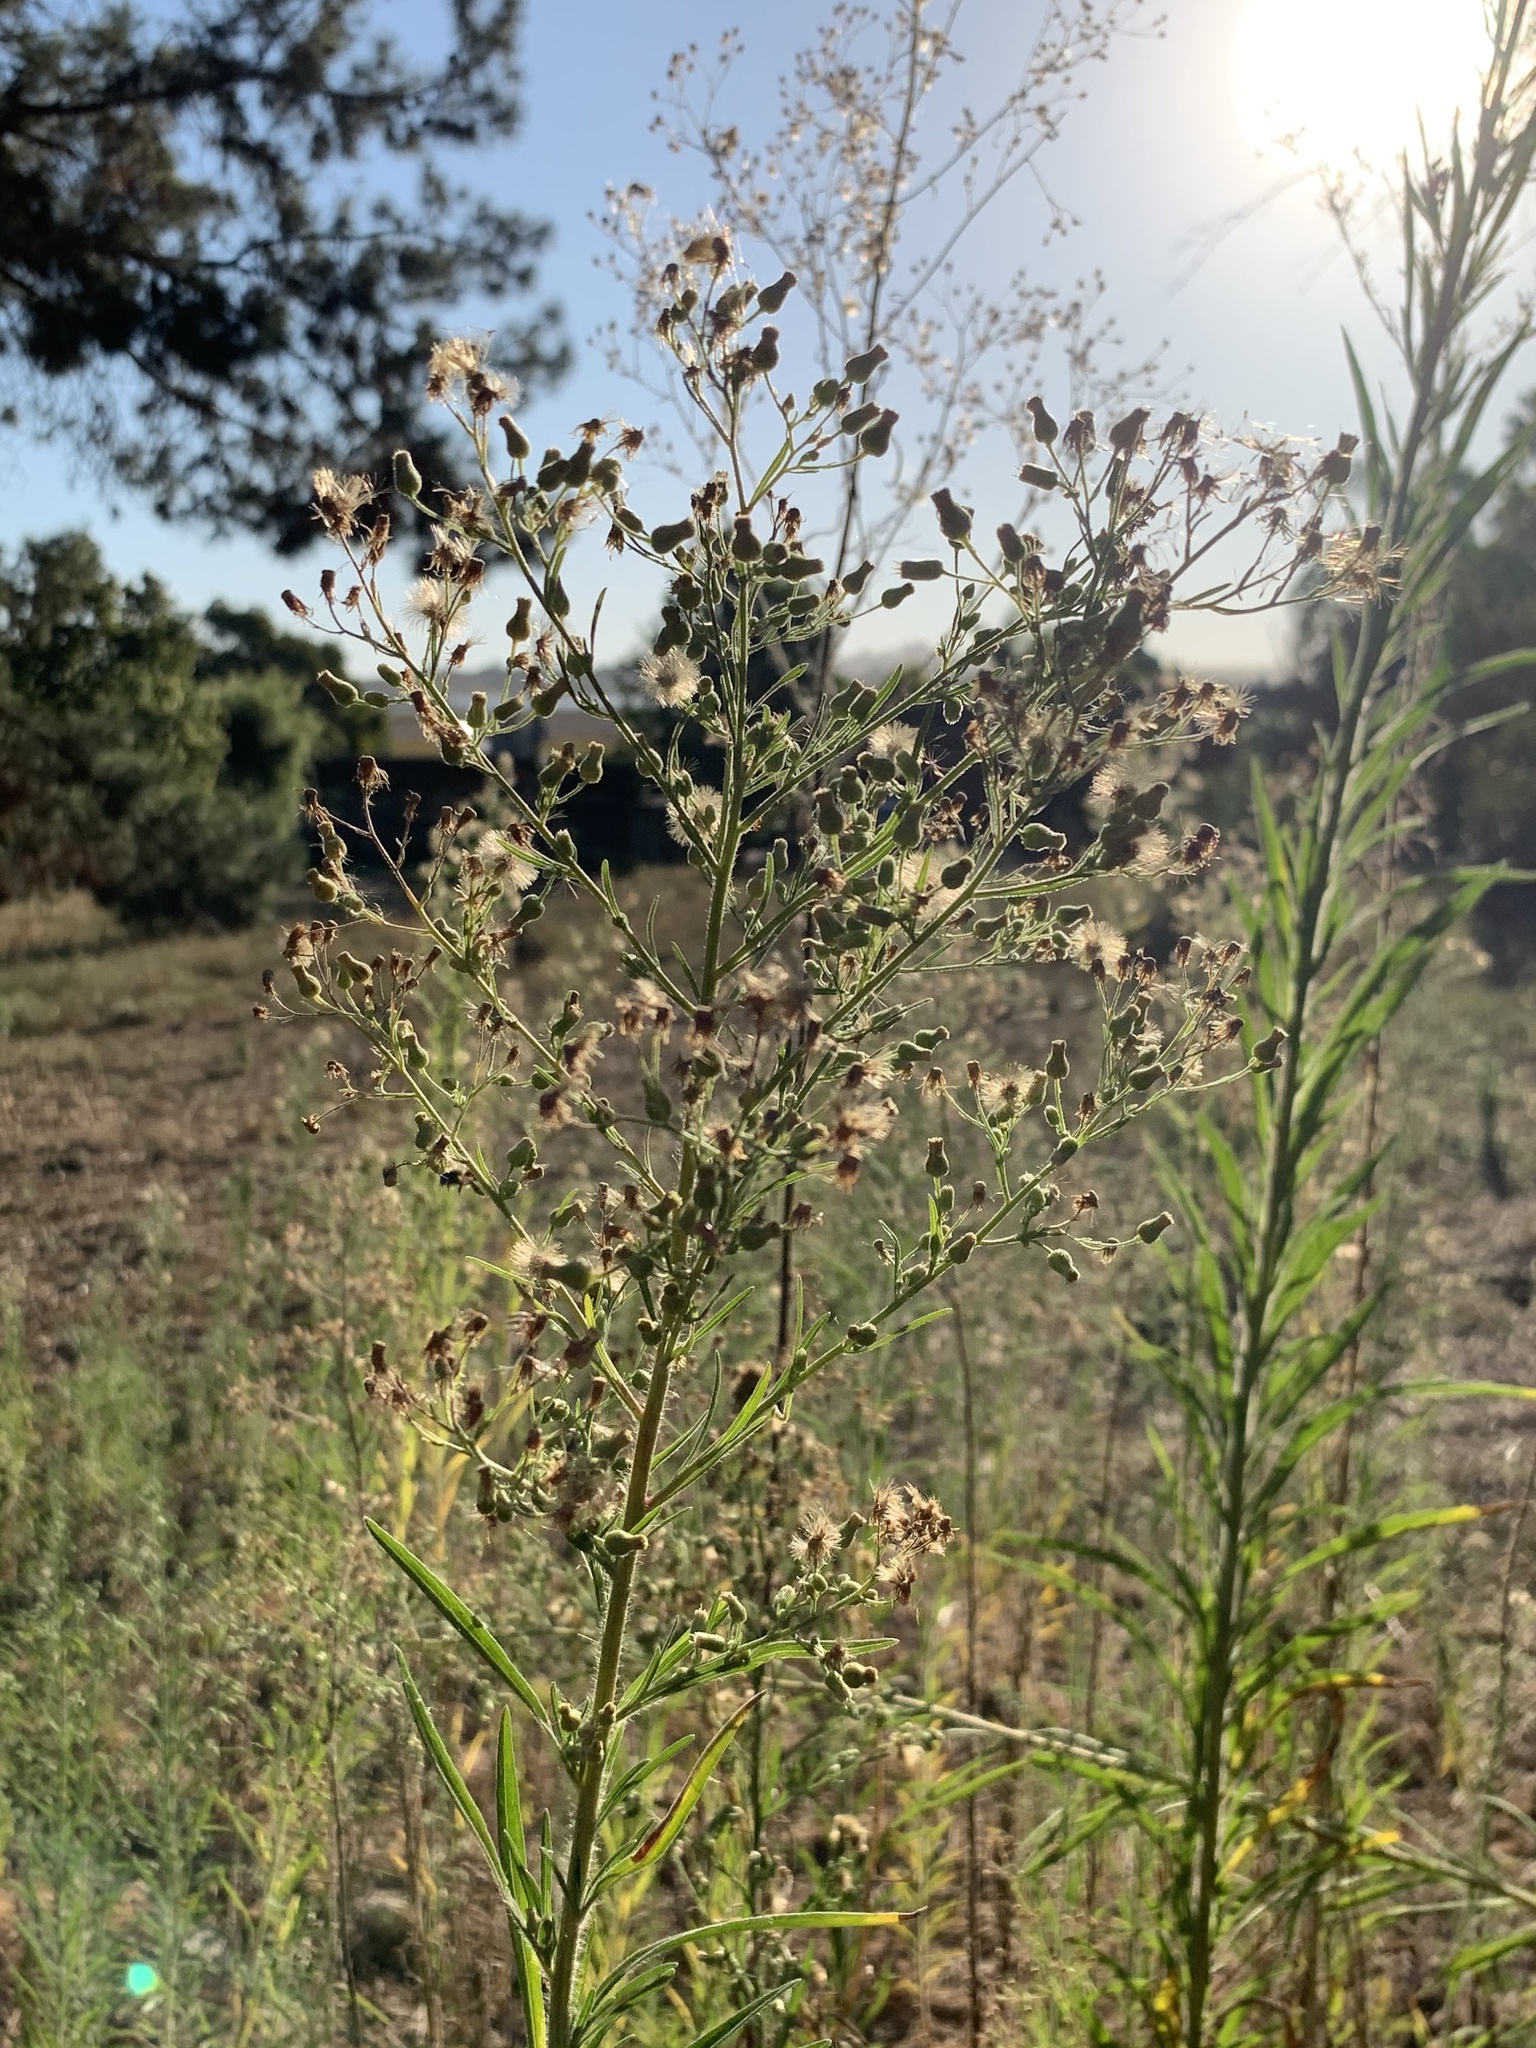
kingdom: Plantae
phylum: Tracheophyta
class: Magnoliopsida
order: Asterales
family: Asteraceae
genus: Erigeron
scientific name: Erigeron sumatrensis
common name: Daisy
